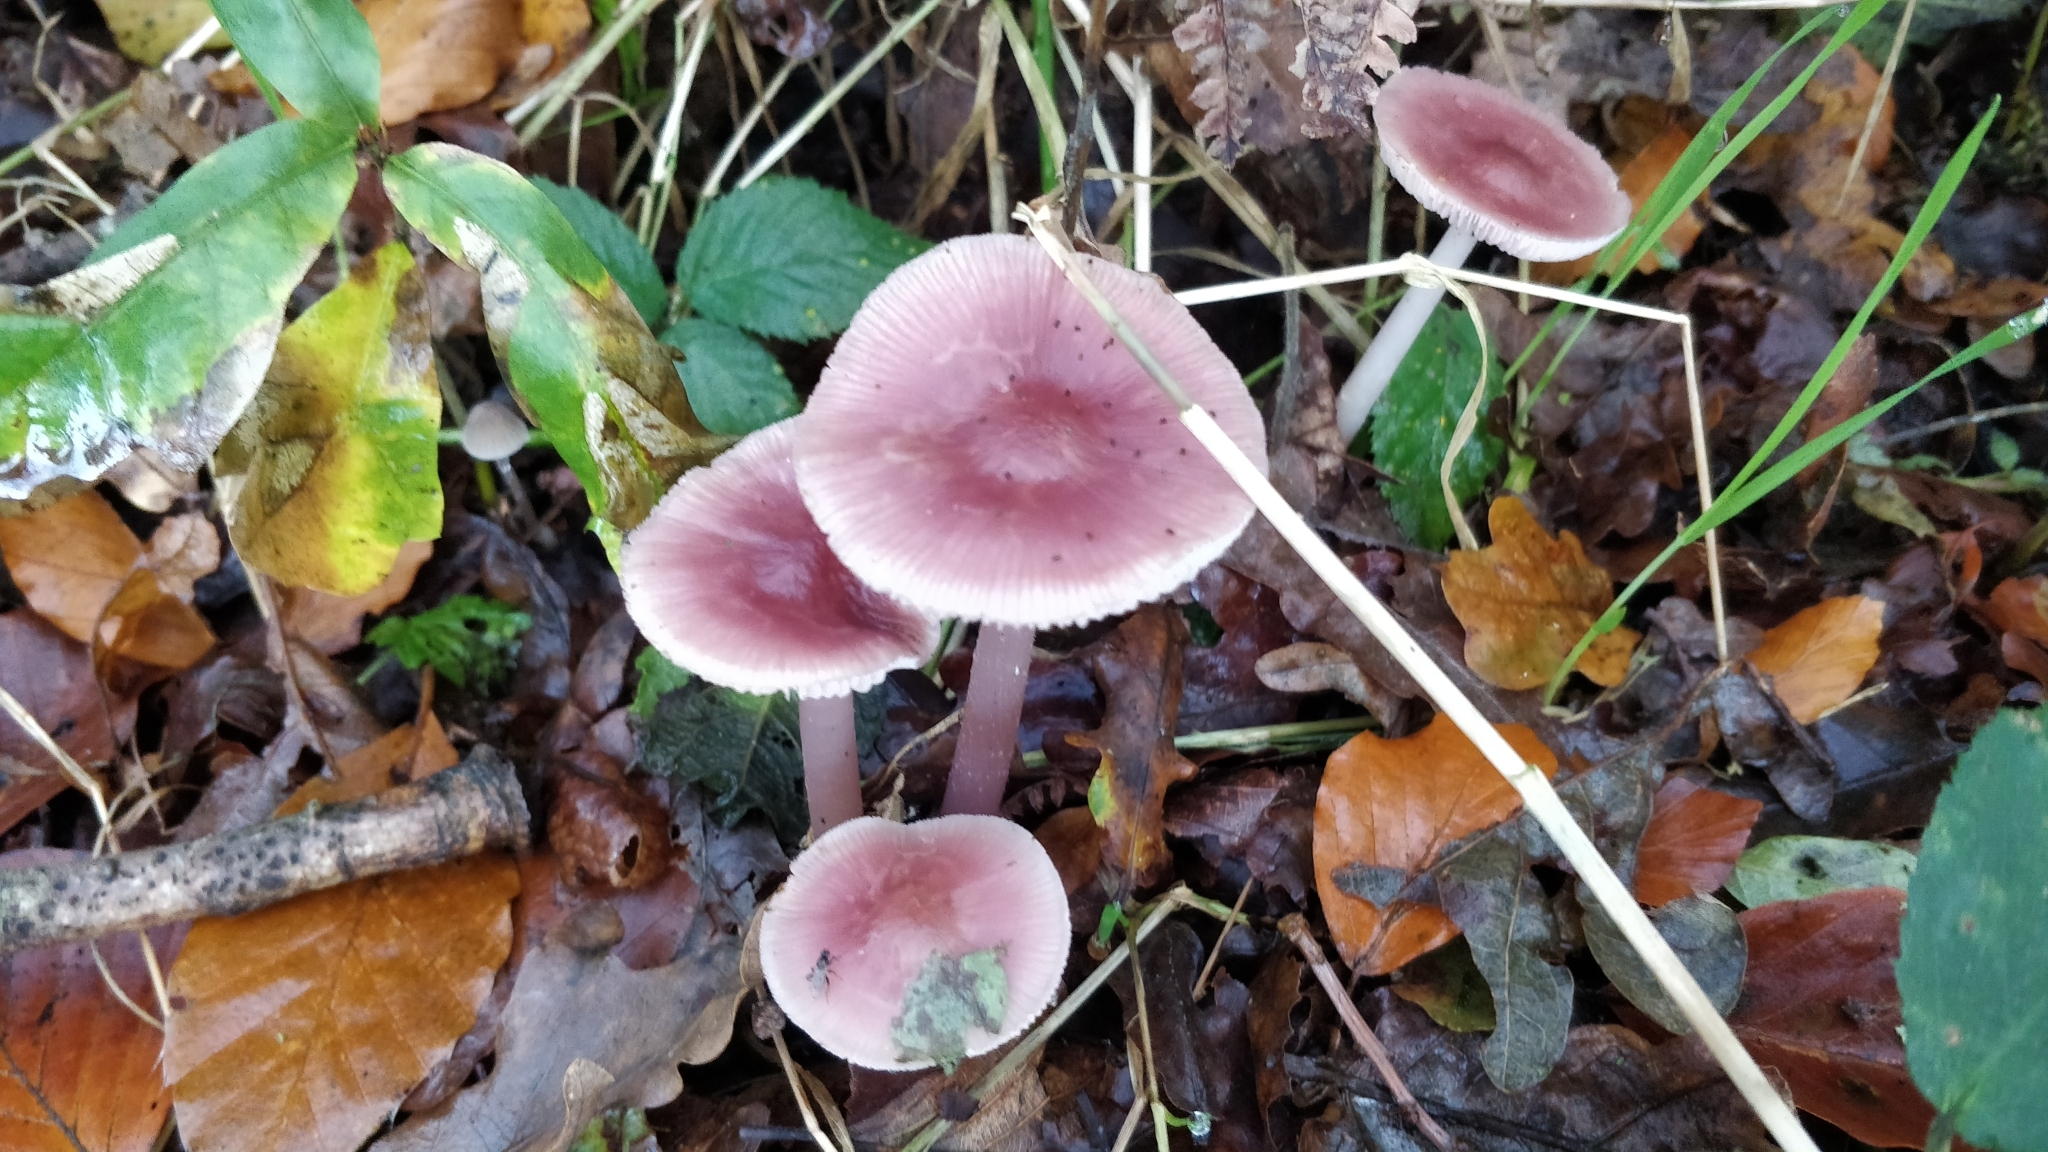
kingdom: Fungi
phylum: Basidiomycota
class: Agaricomycetes
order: Agaricales
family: Mycenaceae
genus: Mycena
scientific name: Mycena rosea
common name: Rosy bonnet
